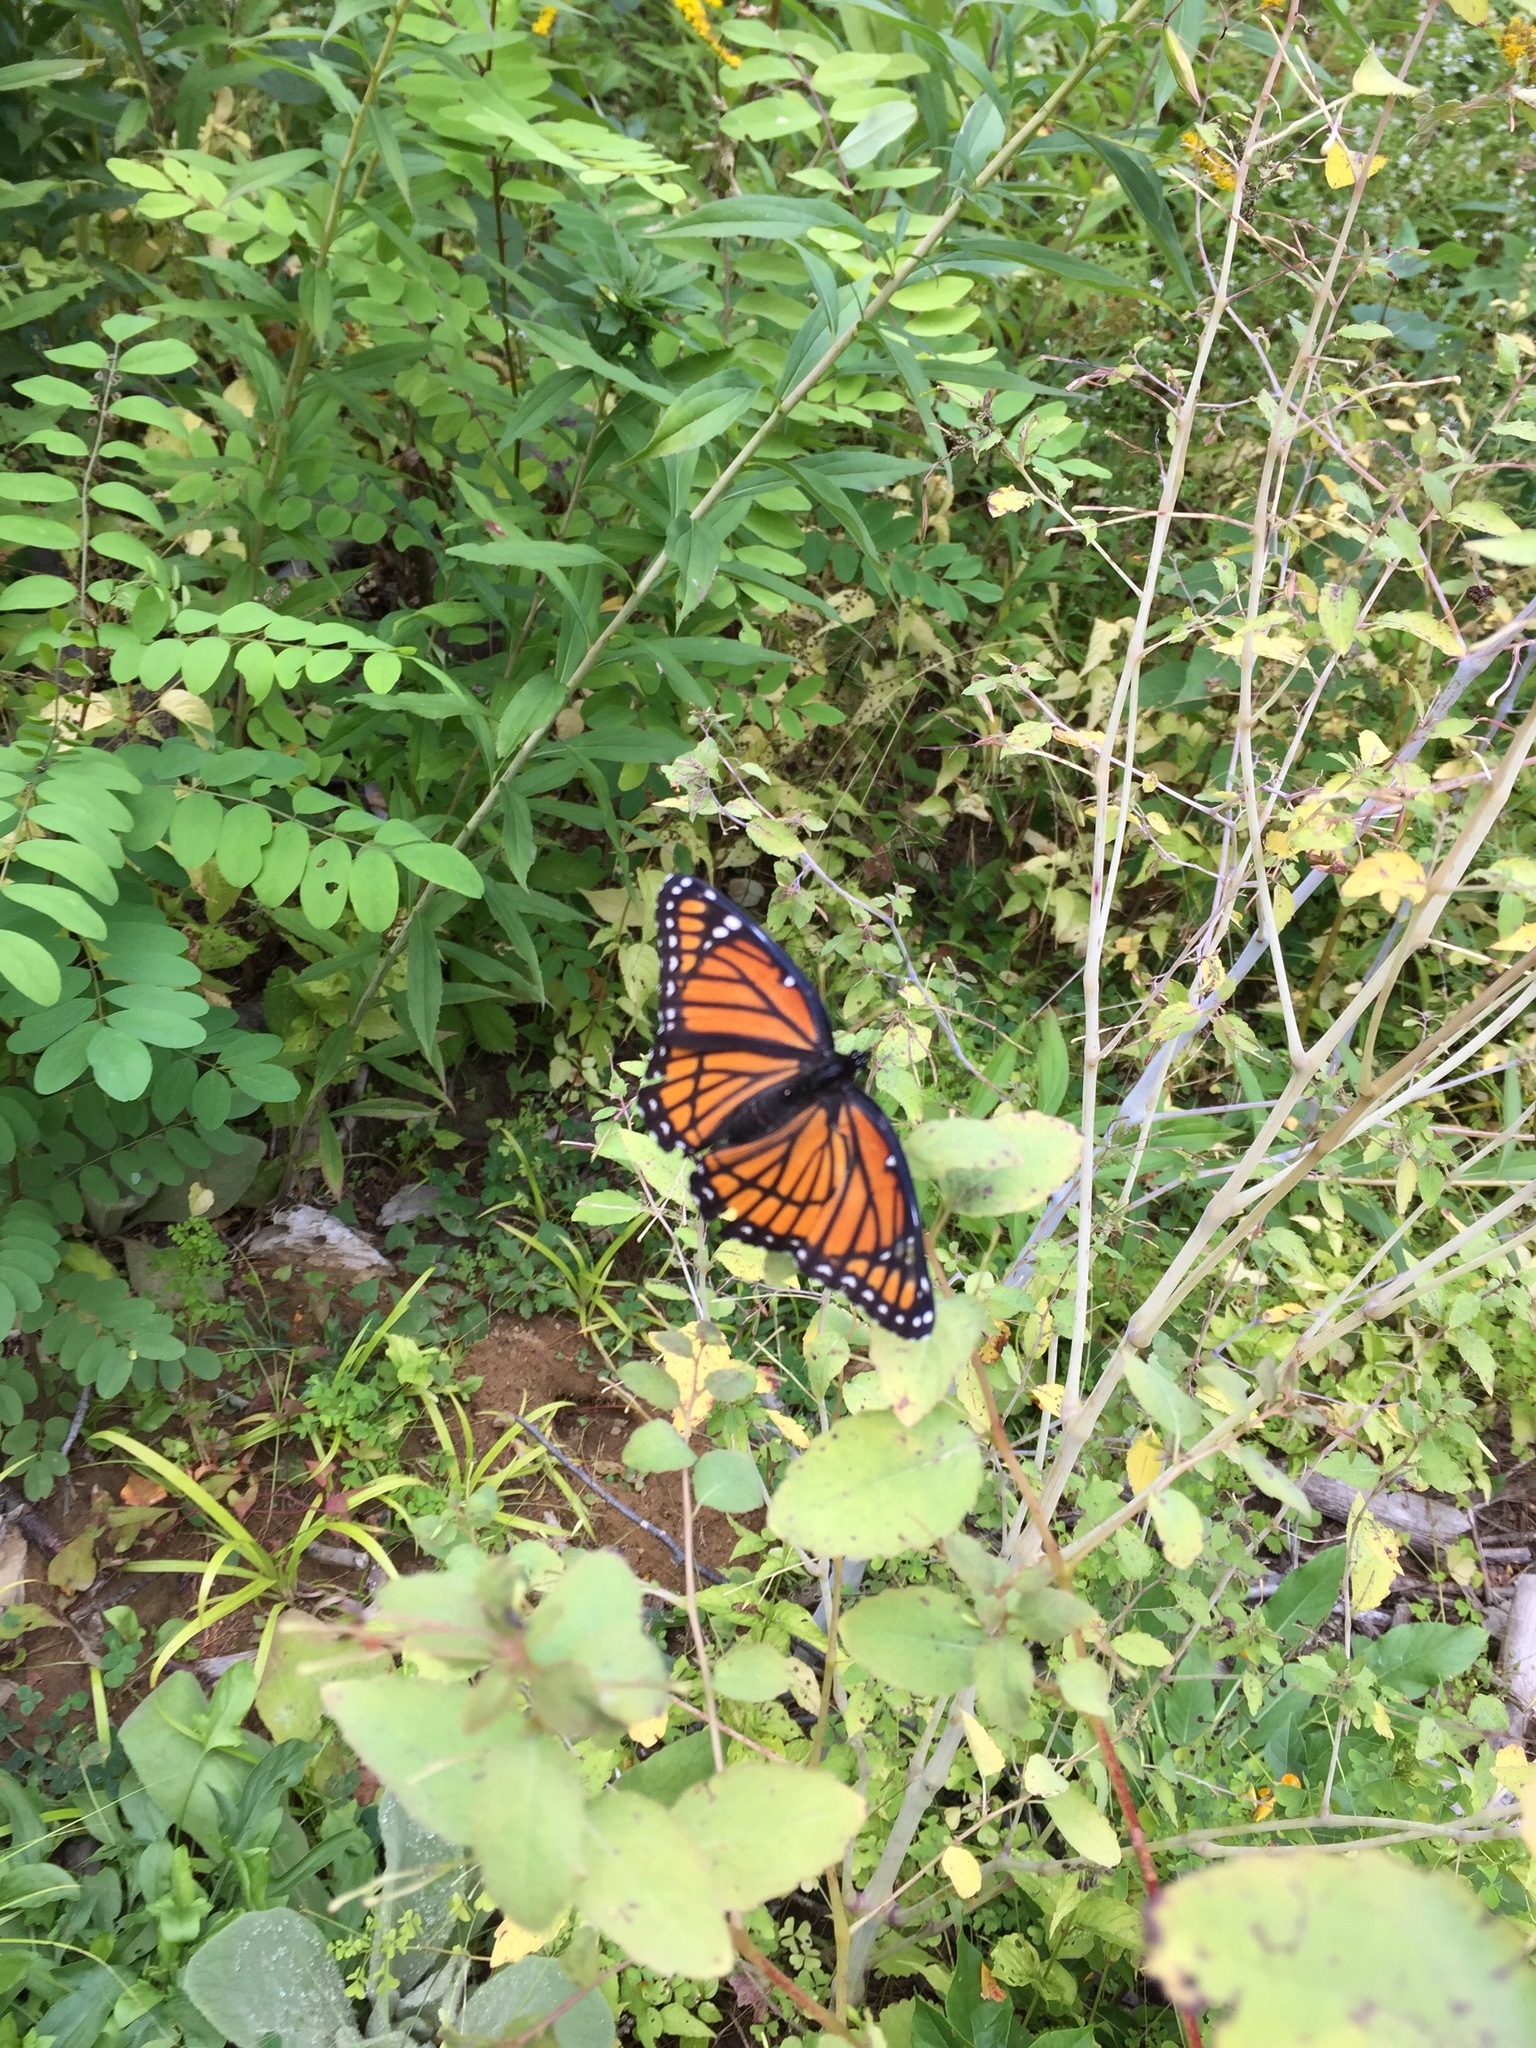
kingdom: Animalia
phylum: Arthropoda
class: Insecta
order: Lepidoptera
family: Nymphalidae
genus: Limenitis
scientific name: Limenitis archippus
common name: Viceroy
